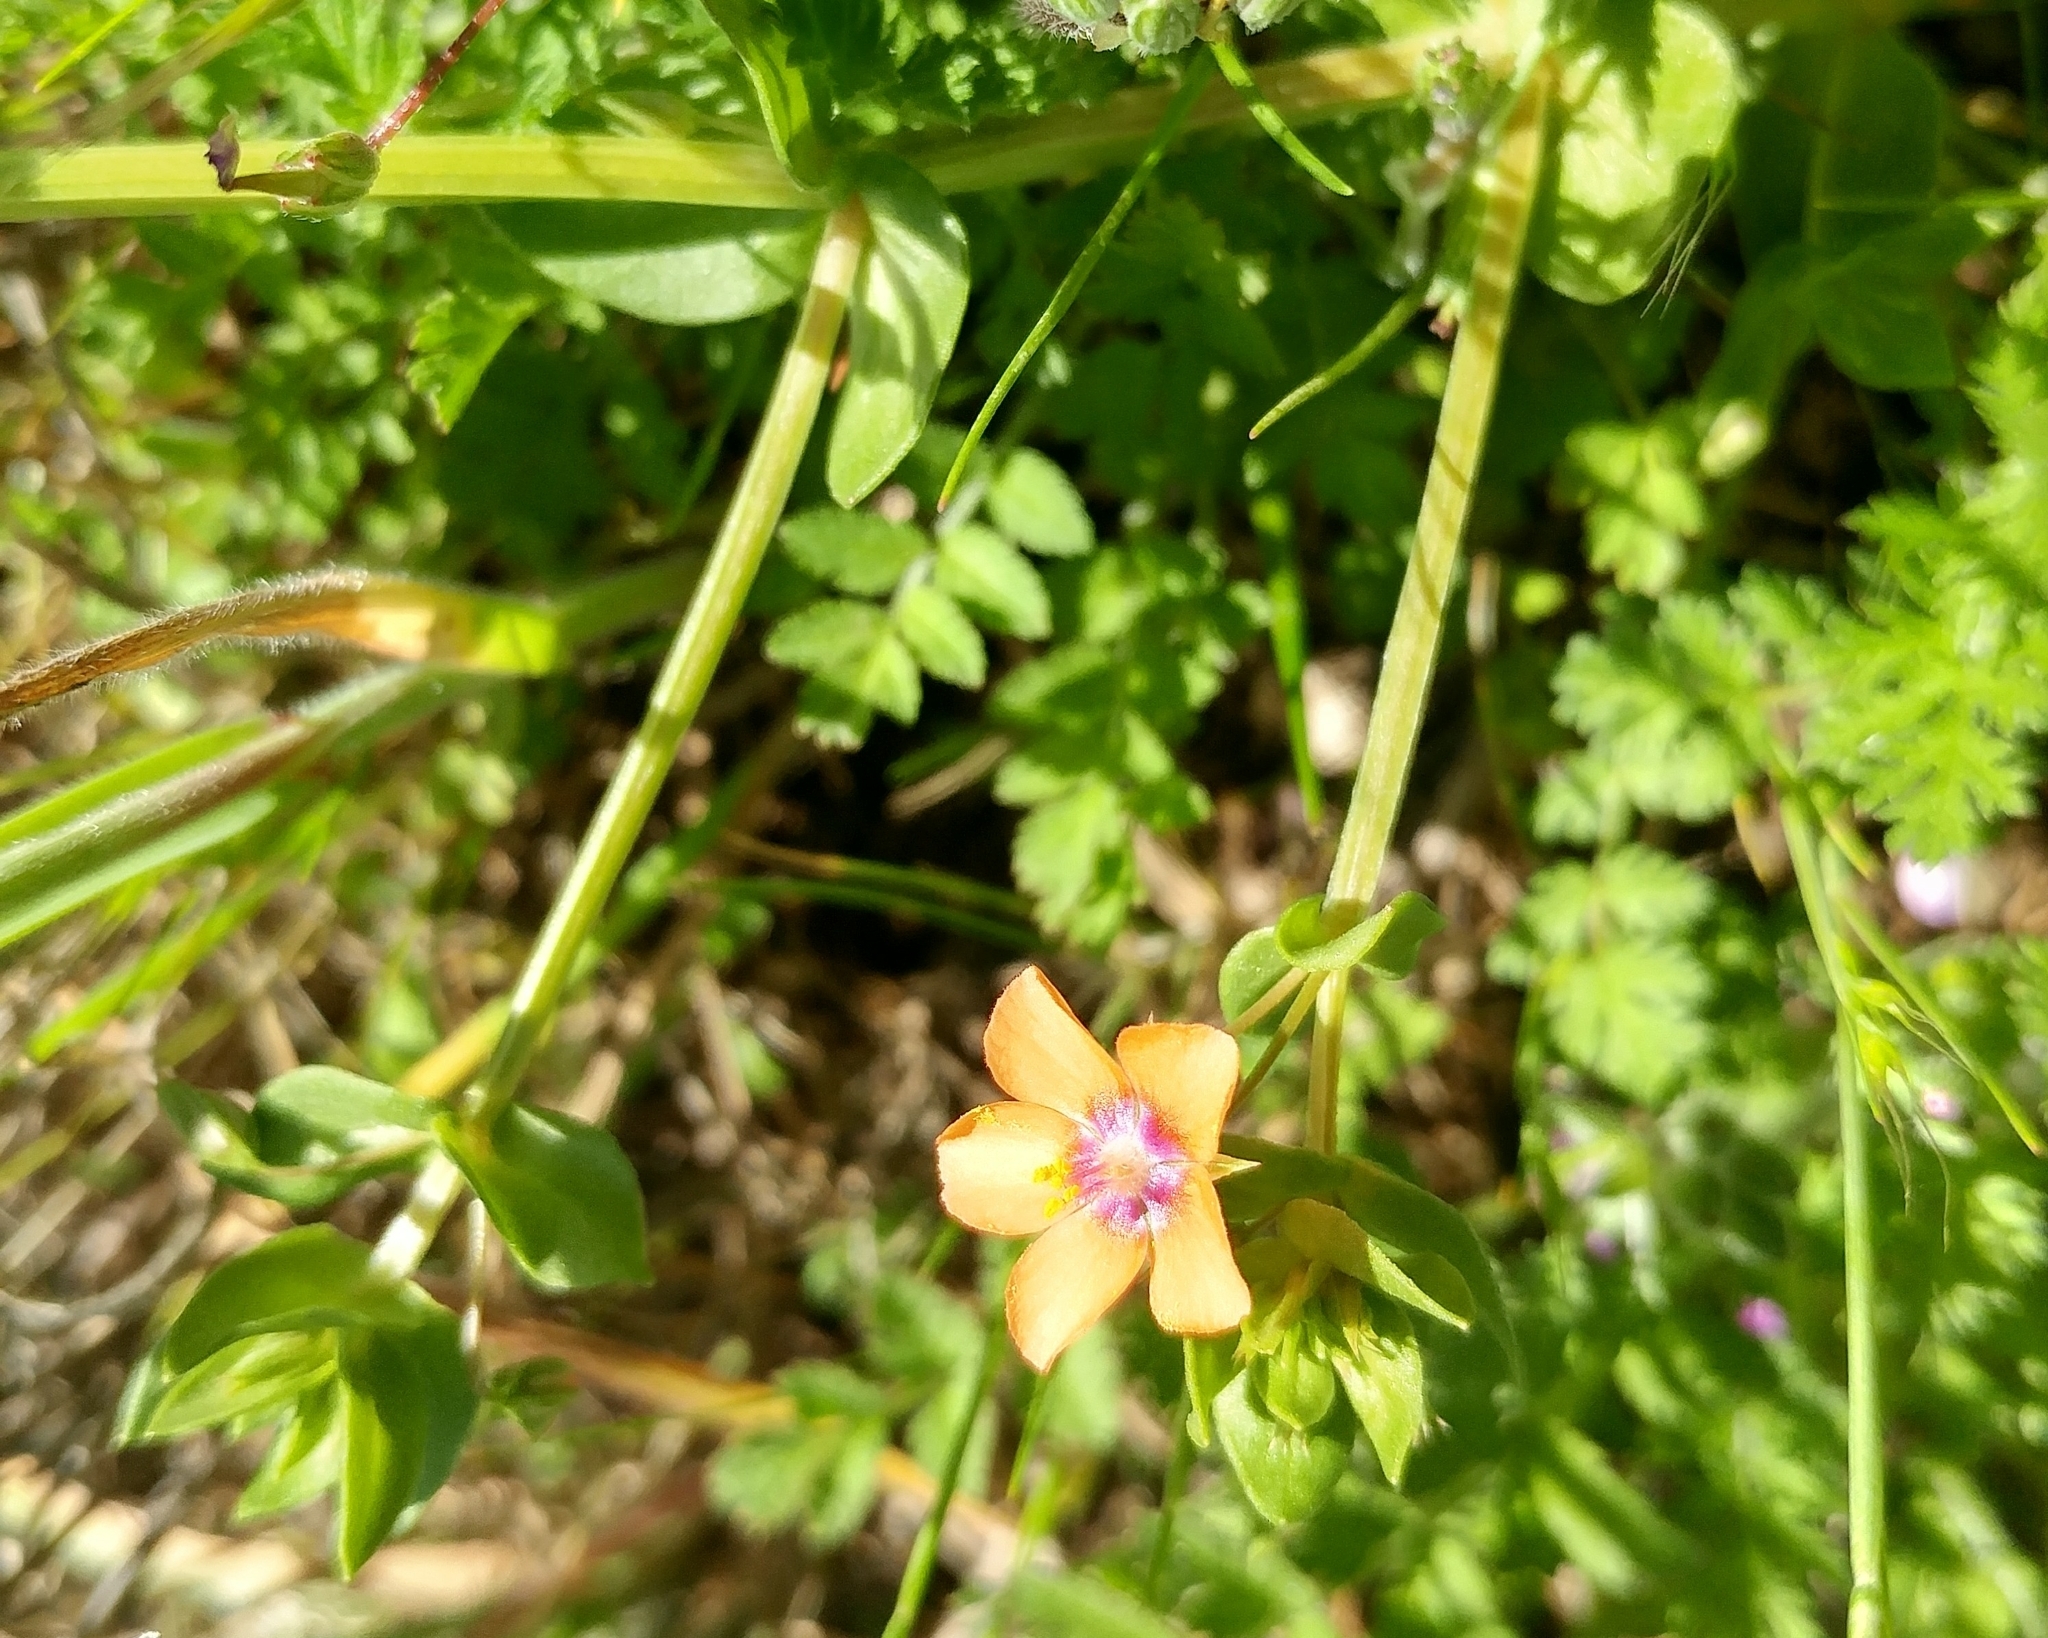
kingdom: Plantae
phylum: Tracheophyta
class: Magnoliopsida
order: Ericales
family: Primulaceae
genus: Lysimachia
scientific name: Lysimachia arvensis
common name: Scarlet pimpernel
